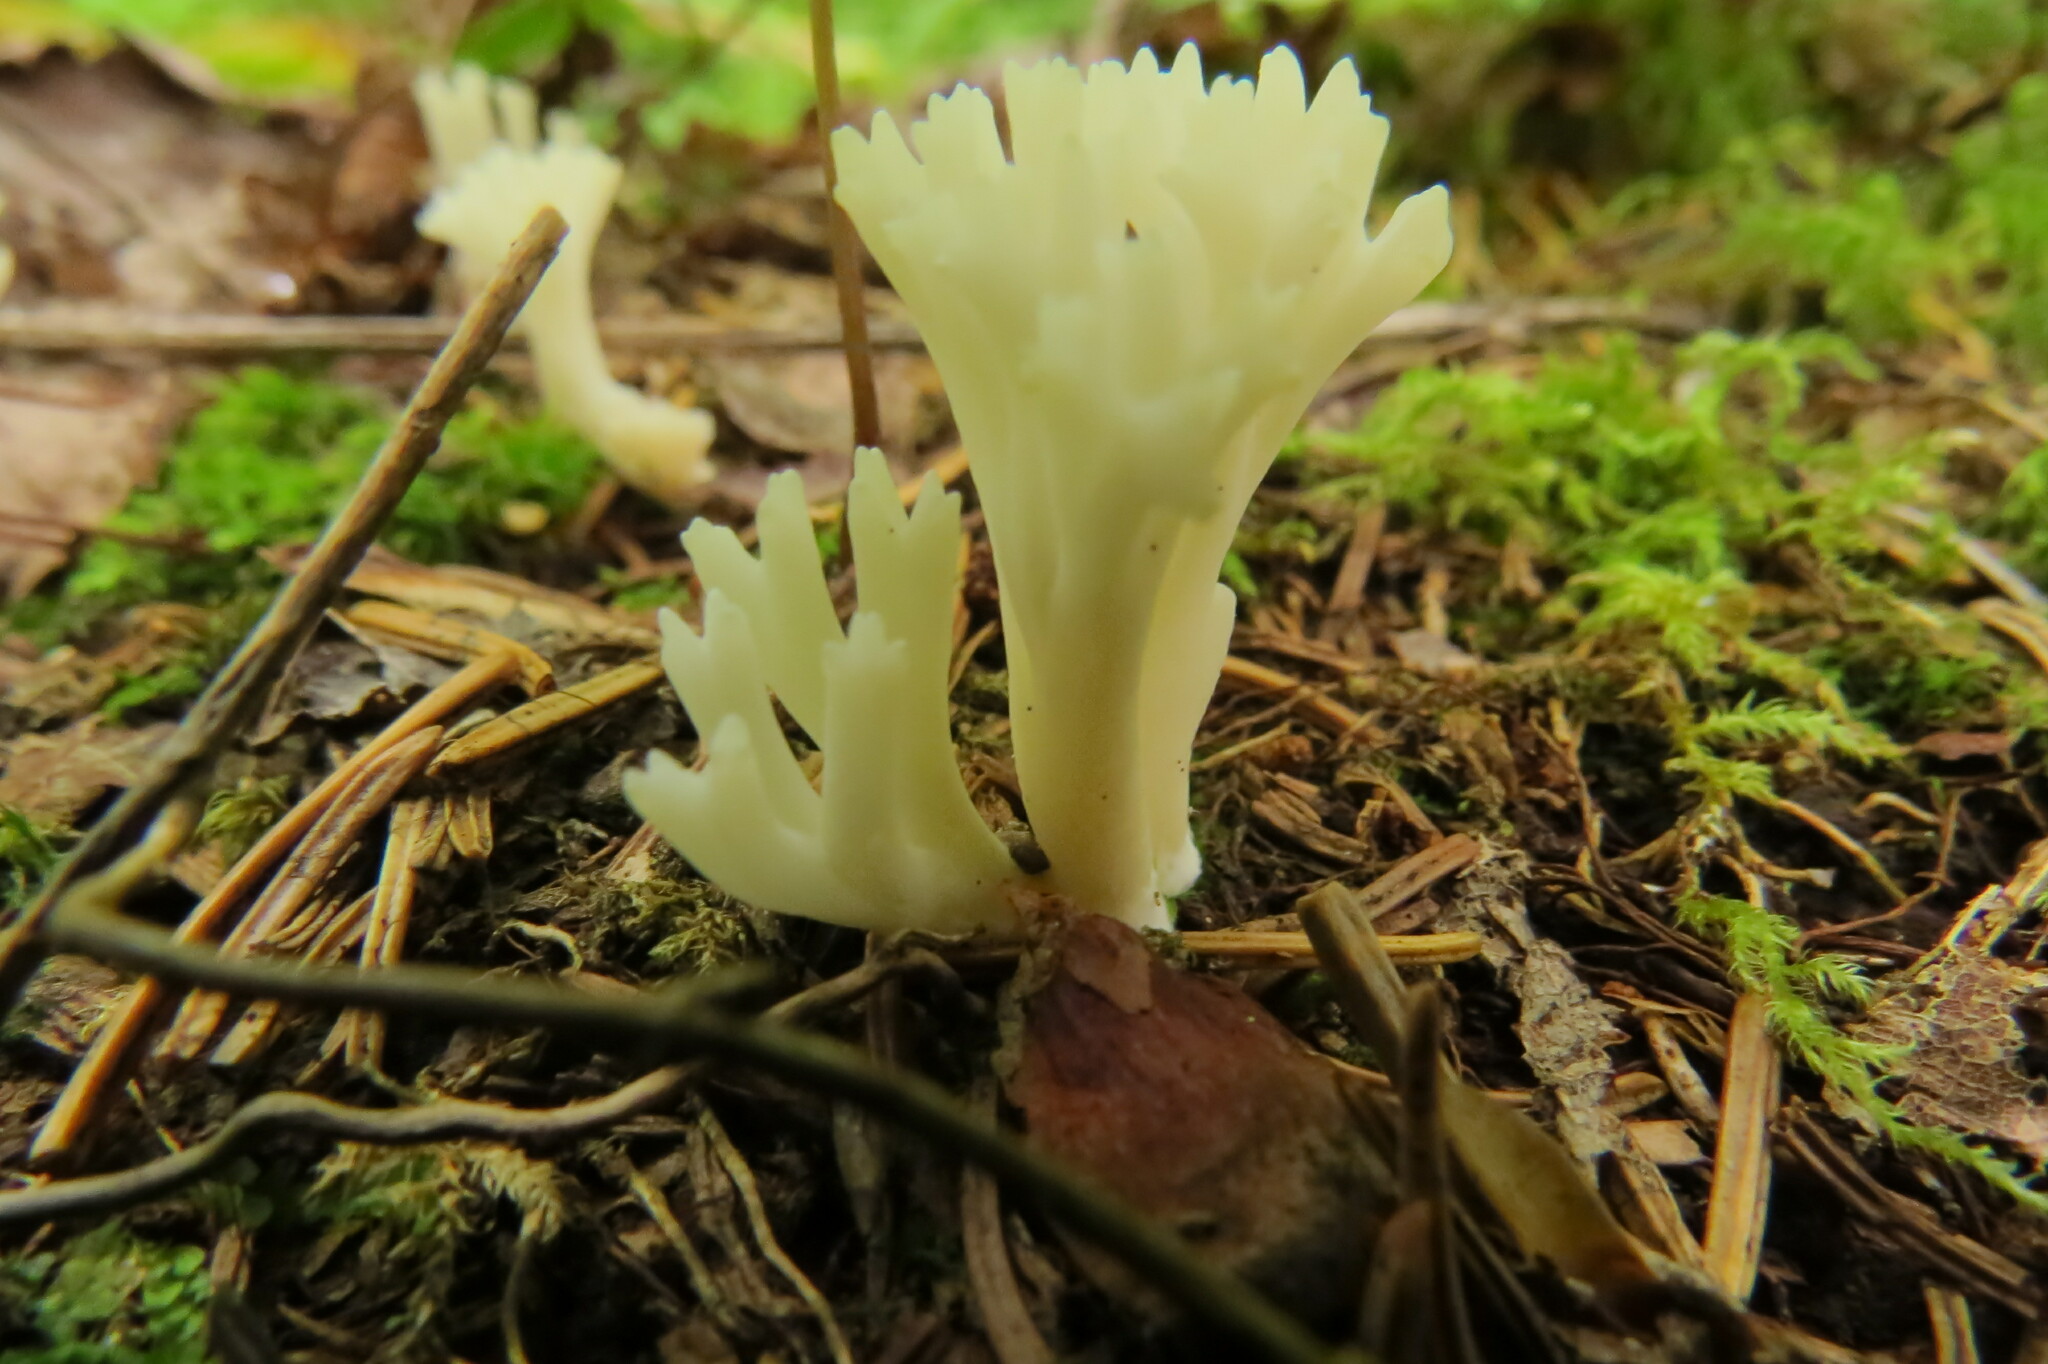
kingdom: Fungi
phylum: Basidiomycota
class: Agaricomycetes
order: Agaricales
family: Clavariaceae
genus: Ramariopsis
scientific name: Ramariopsis kunzei
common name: Ivory coral
